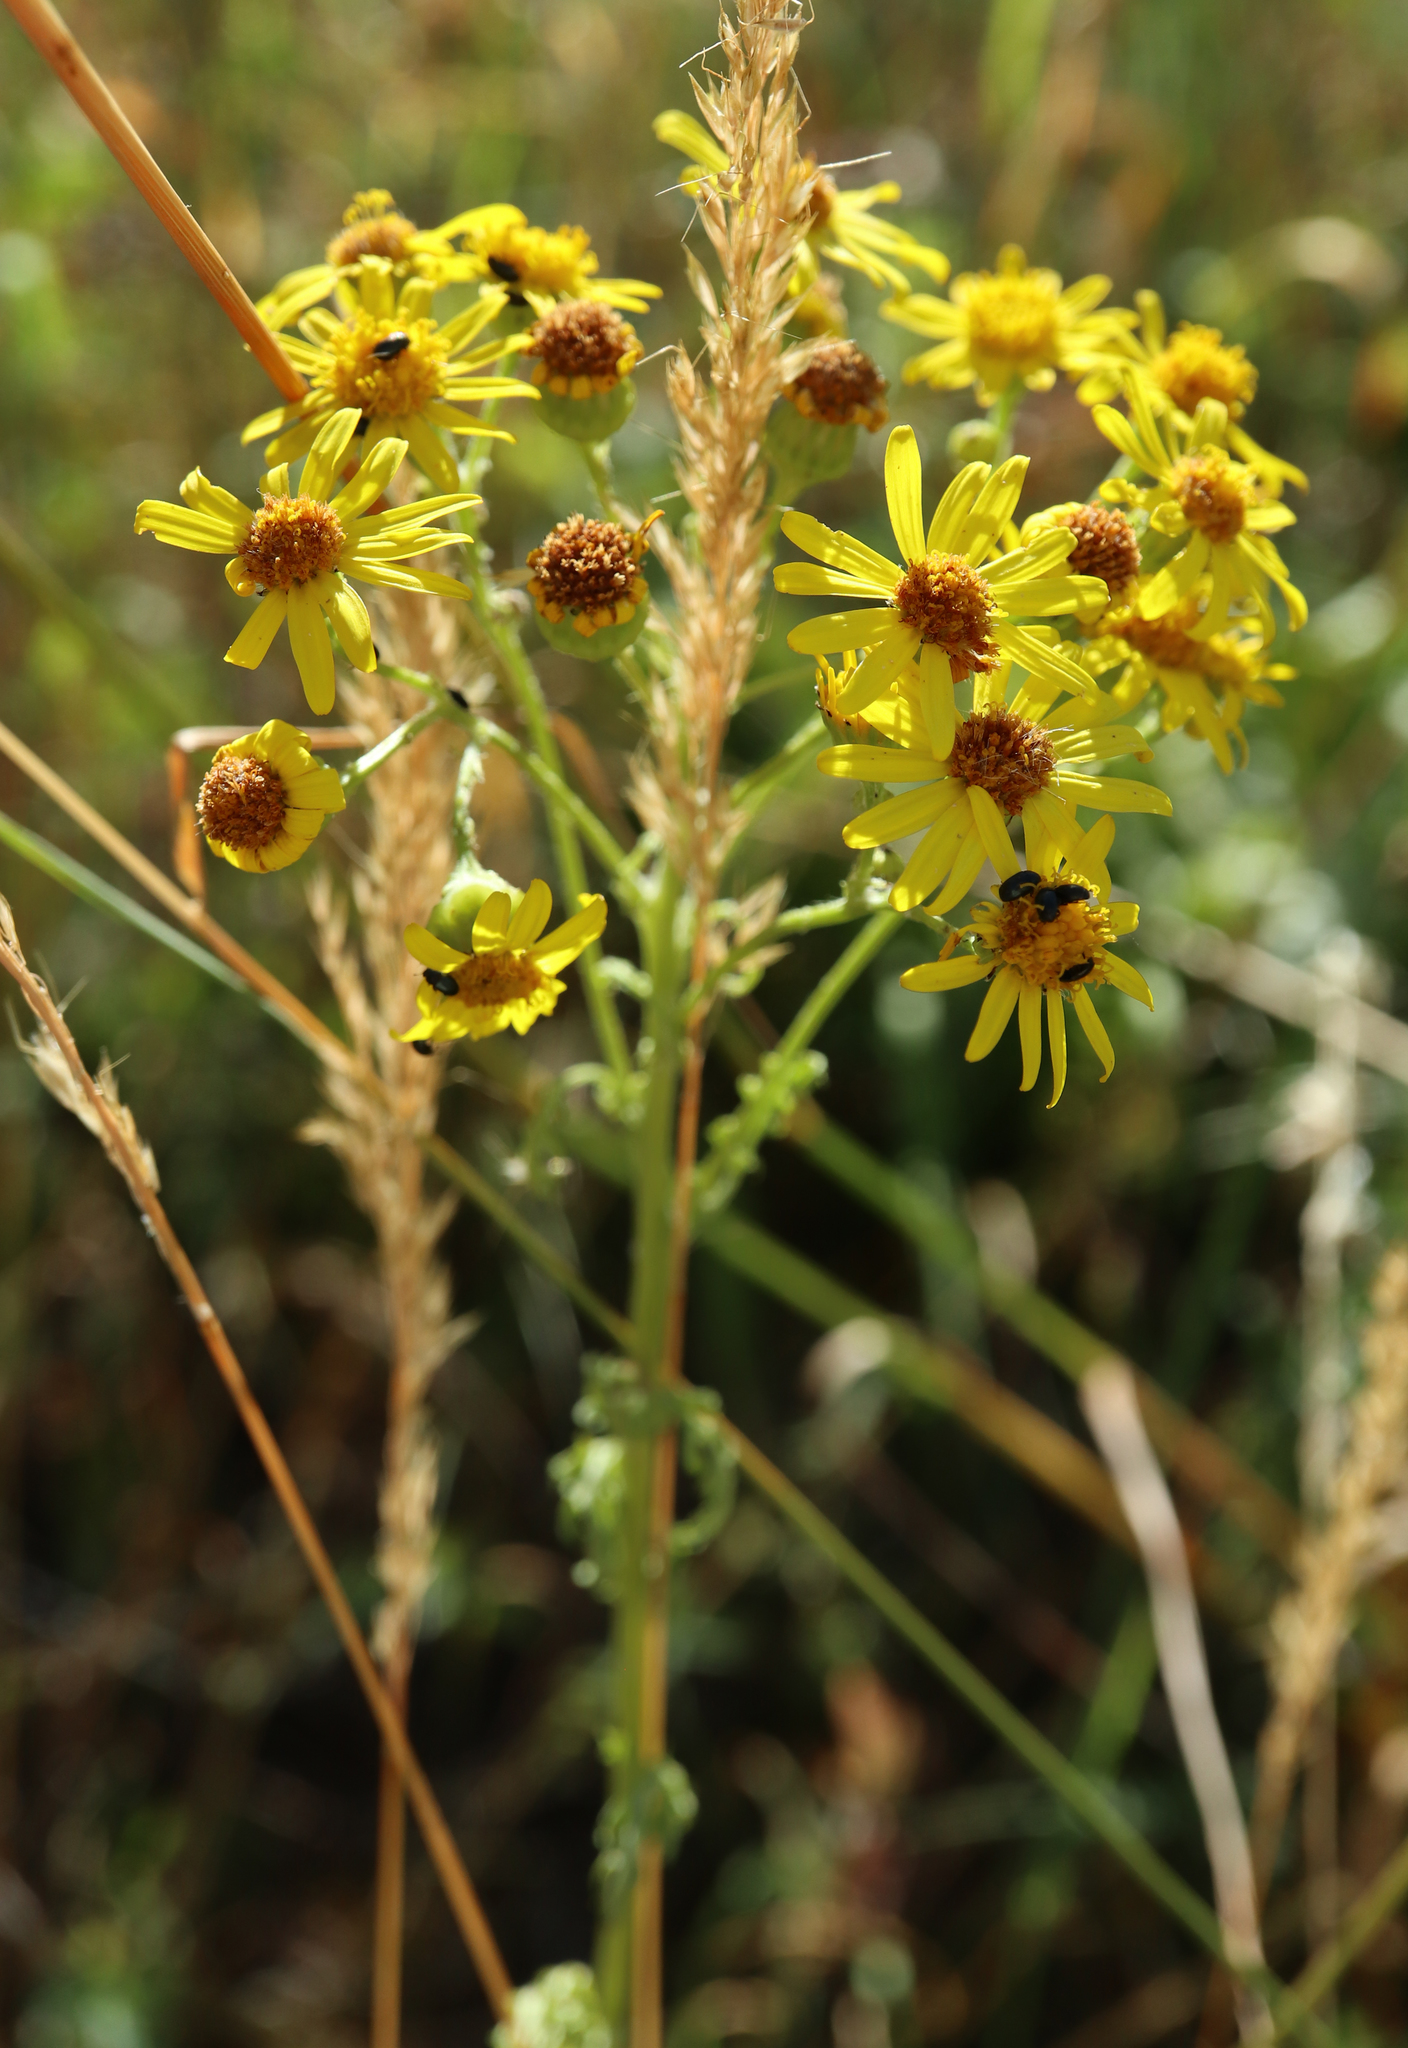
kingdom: Plantae
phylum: Tracheophyta
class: Magnoliopsida
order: Asterales
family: Asteraceae
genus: Jacobaea
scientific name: Jacobaea vulgaris
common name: Stinking willie
